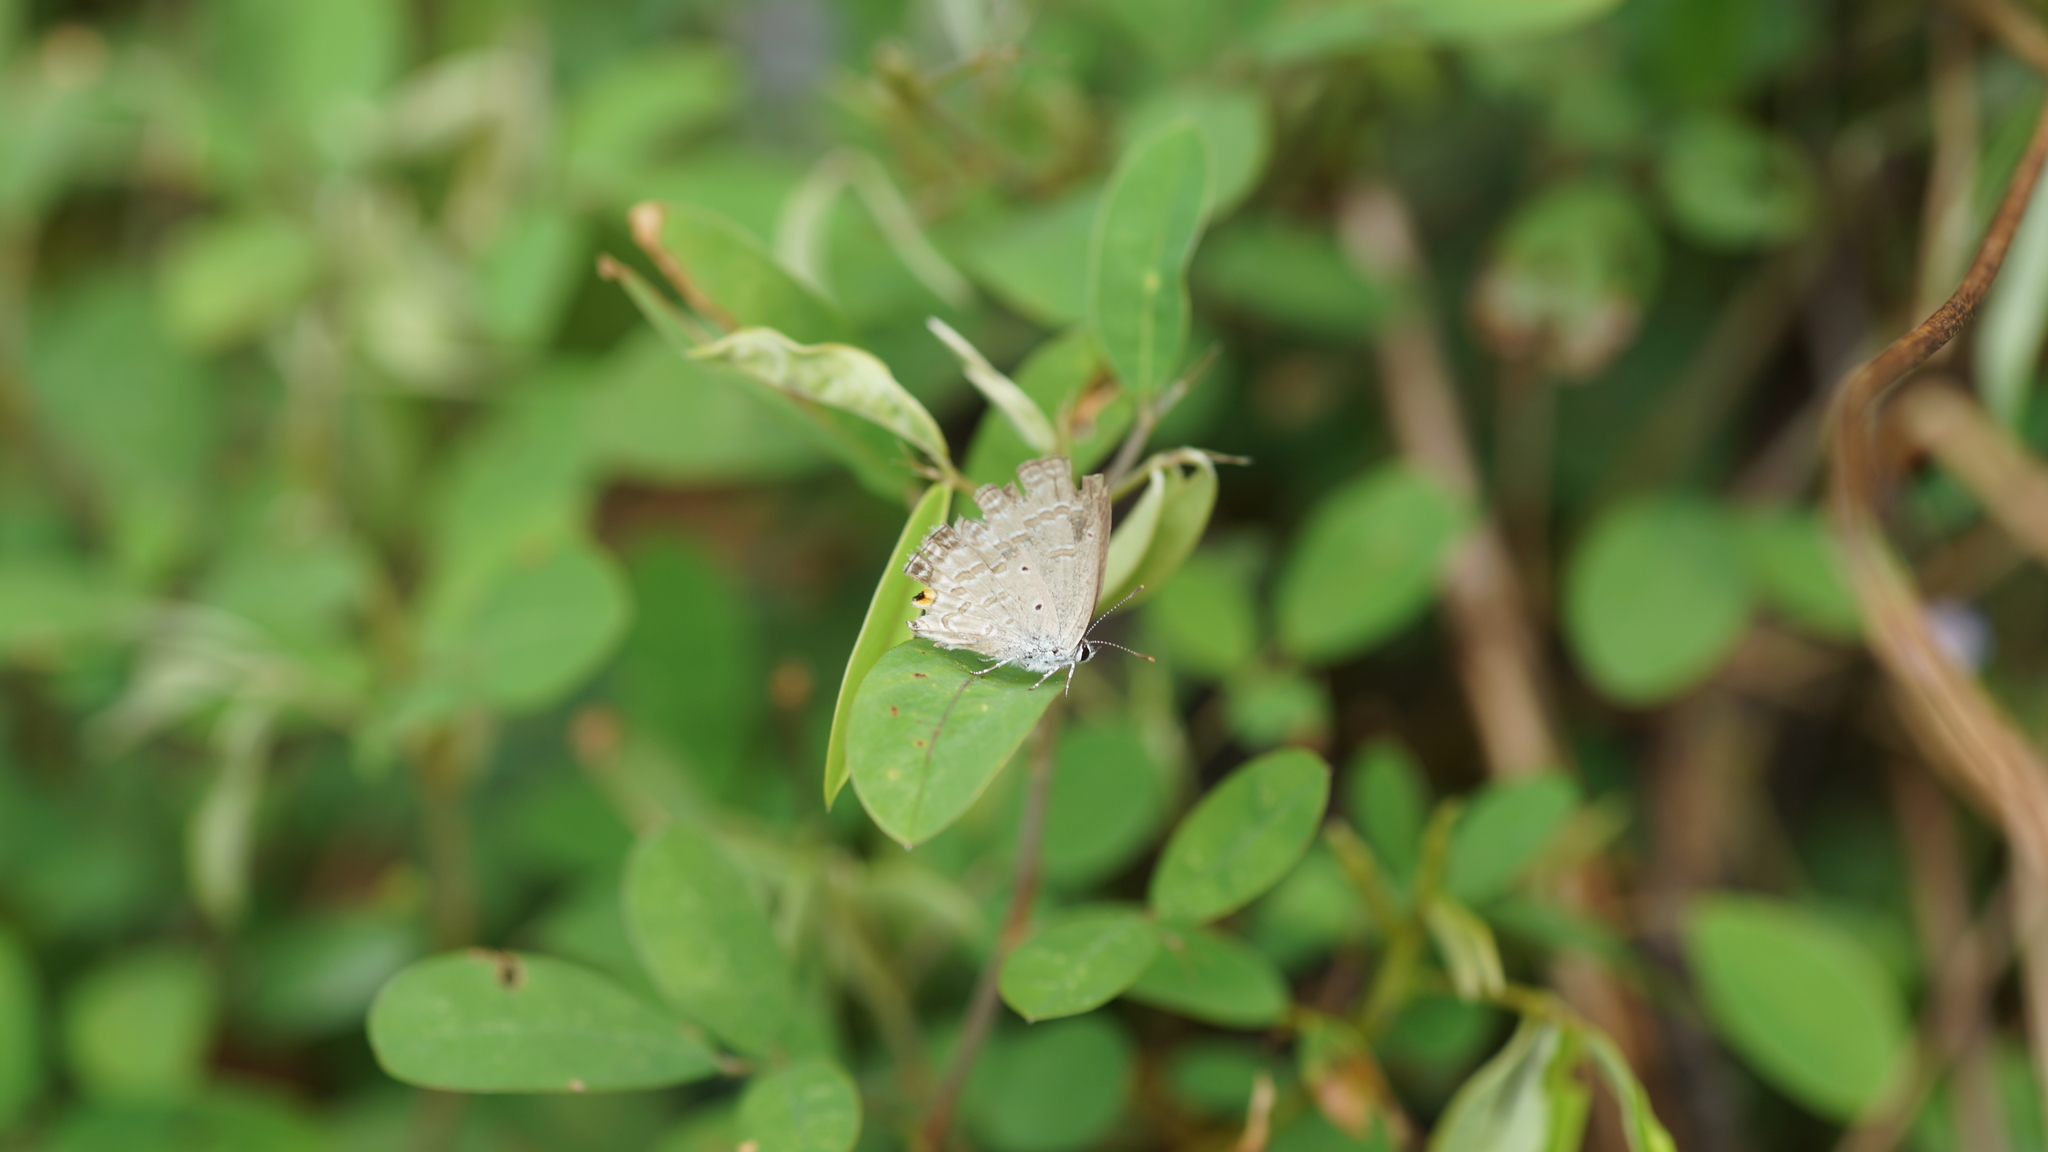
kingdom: Animalia
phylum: Arthropoda
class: Insecta
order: Lepidoptera
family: Lycaenidae
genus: Catochrysops
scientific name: Catochrysops strabo
